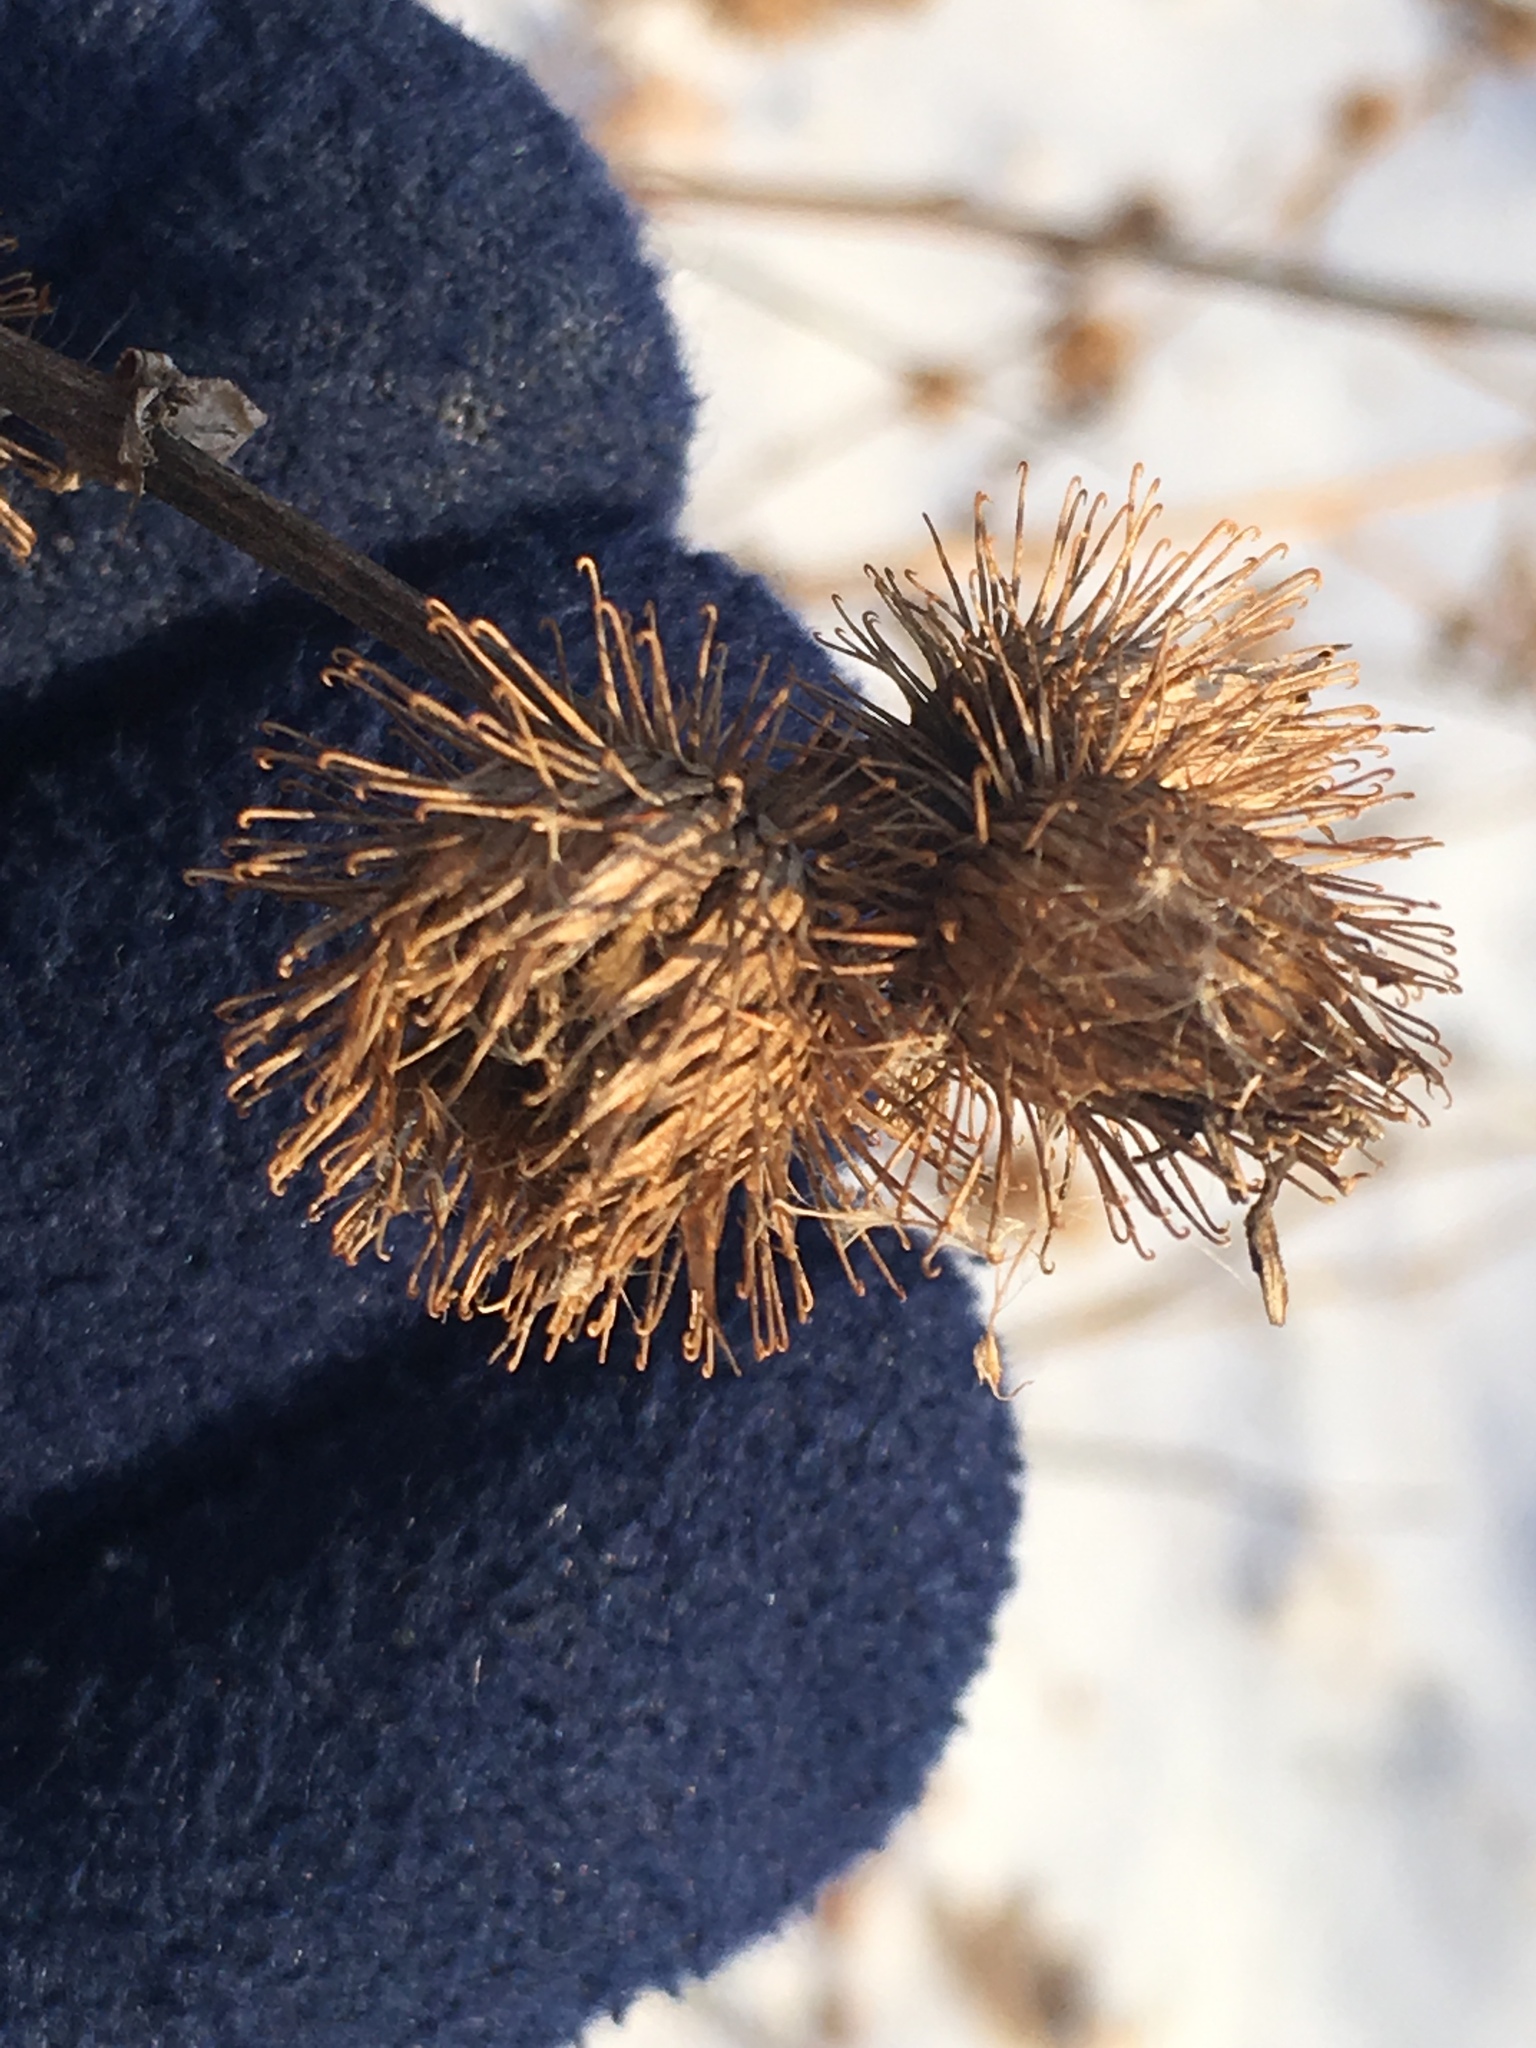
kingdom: Plantae
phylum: Tracheophyta
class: Magnoliopsida
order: Asterales
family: Asteraceae
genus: Arctium
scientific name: Arctium minus
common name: Lesser burdock
